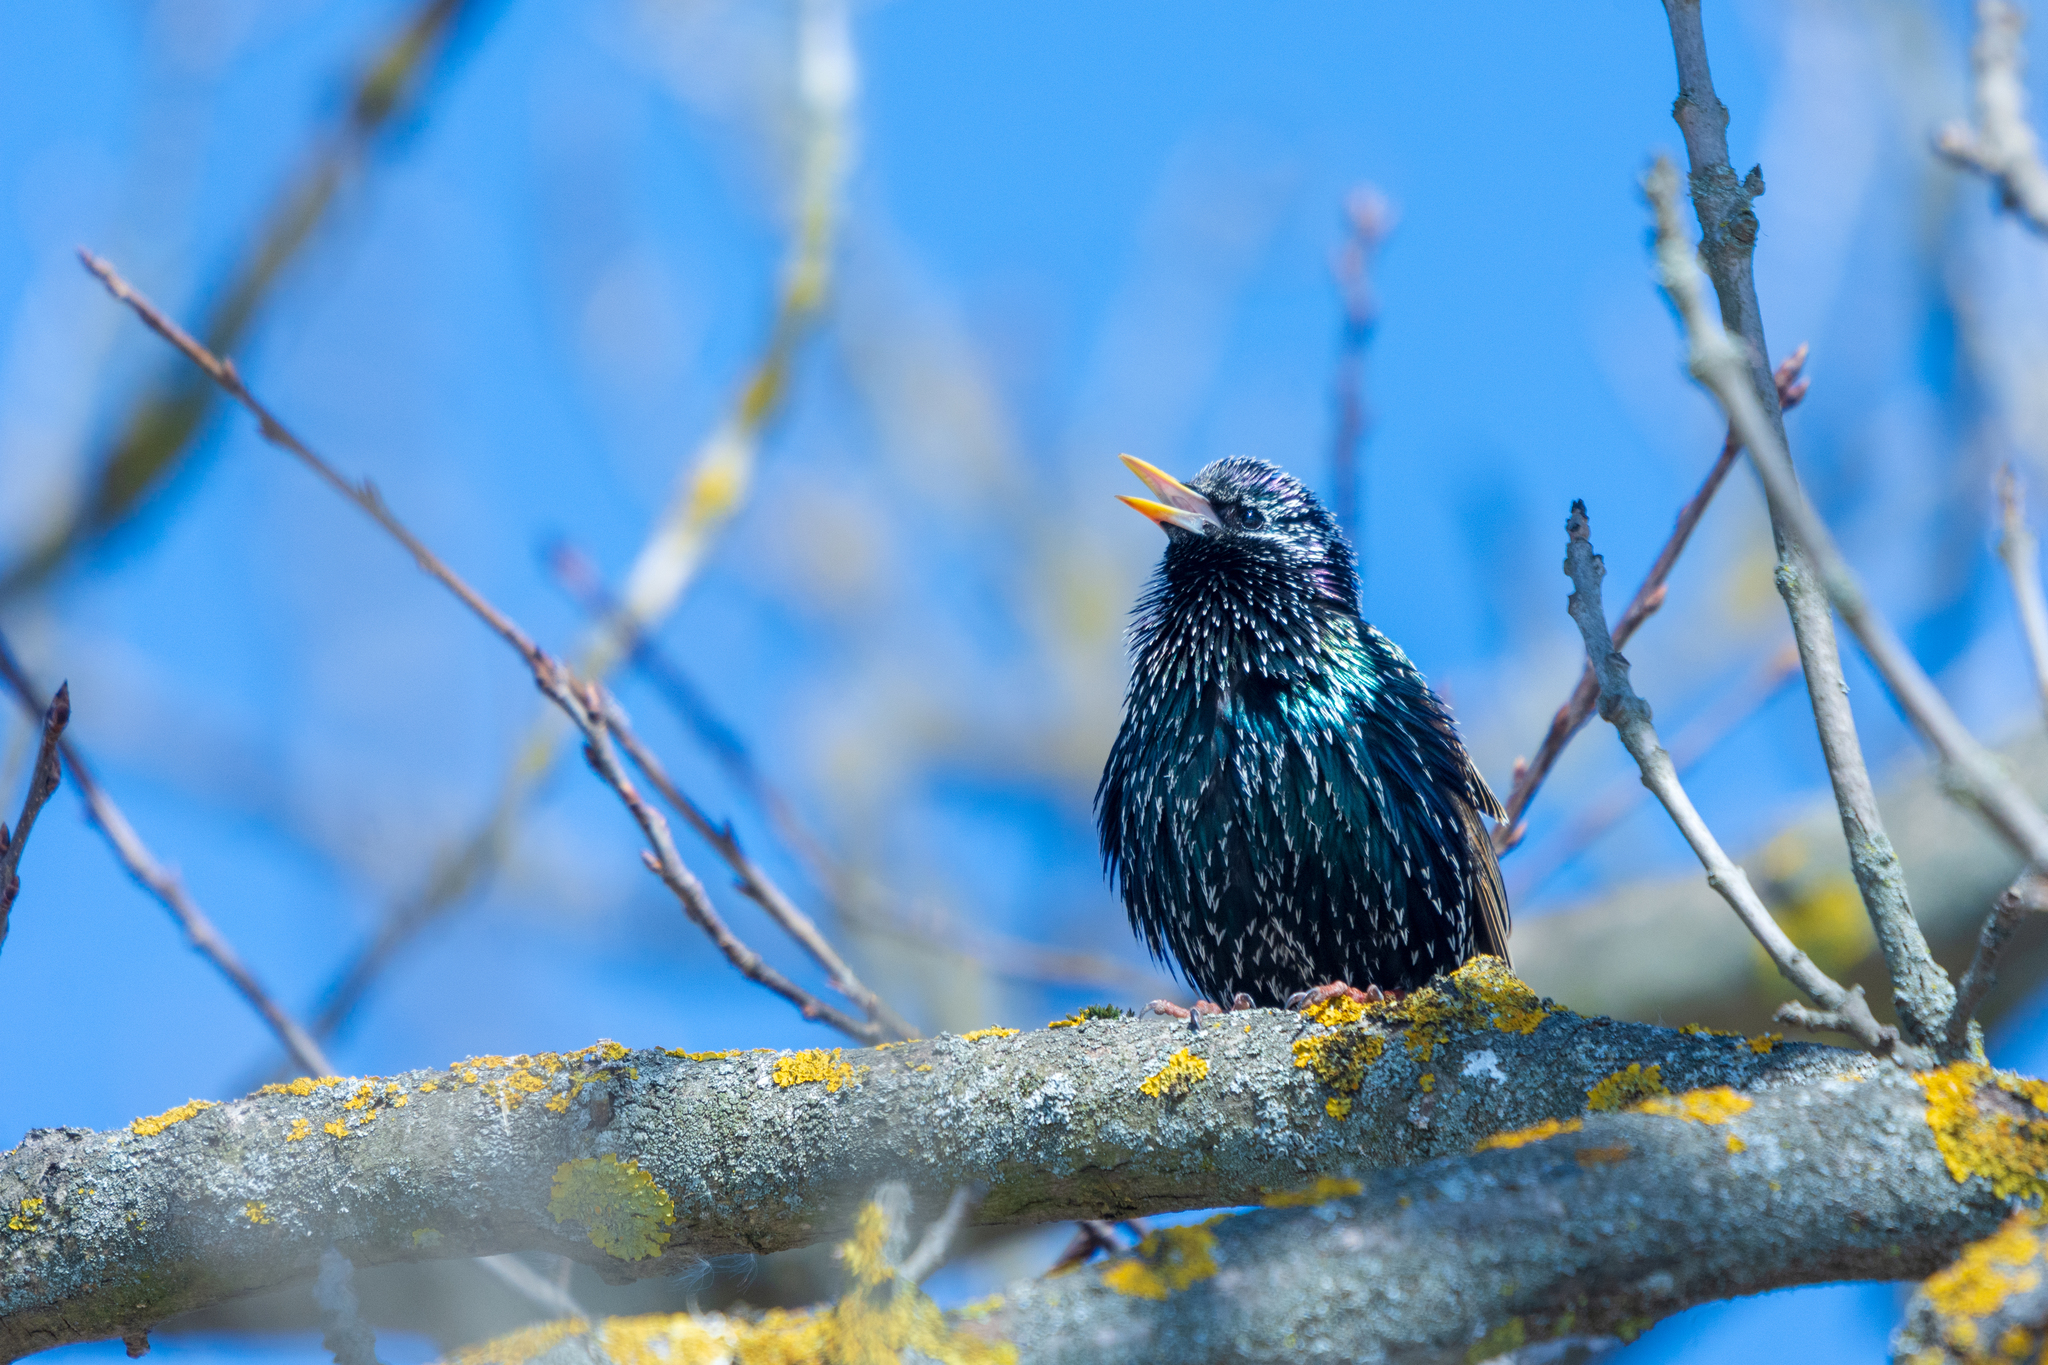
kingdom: Animalia
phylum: Chordata
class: Aves
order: Passeriformes
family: Sturnidae
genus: Sturnus
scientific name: Sturnus vulgaris
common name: Common starling
